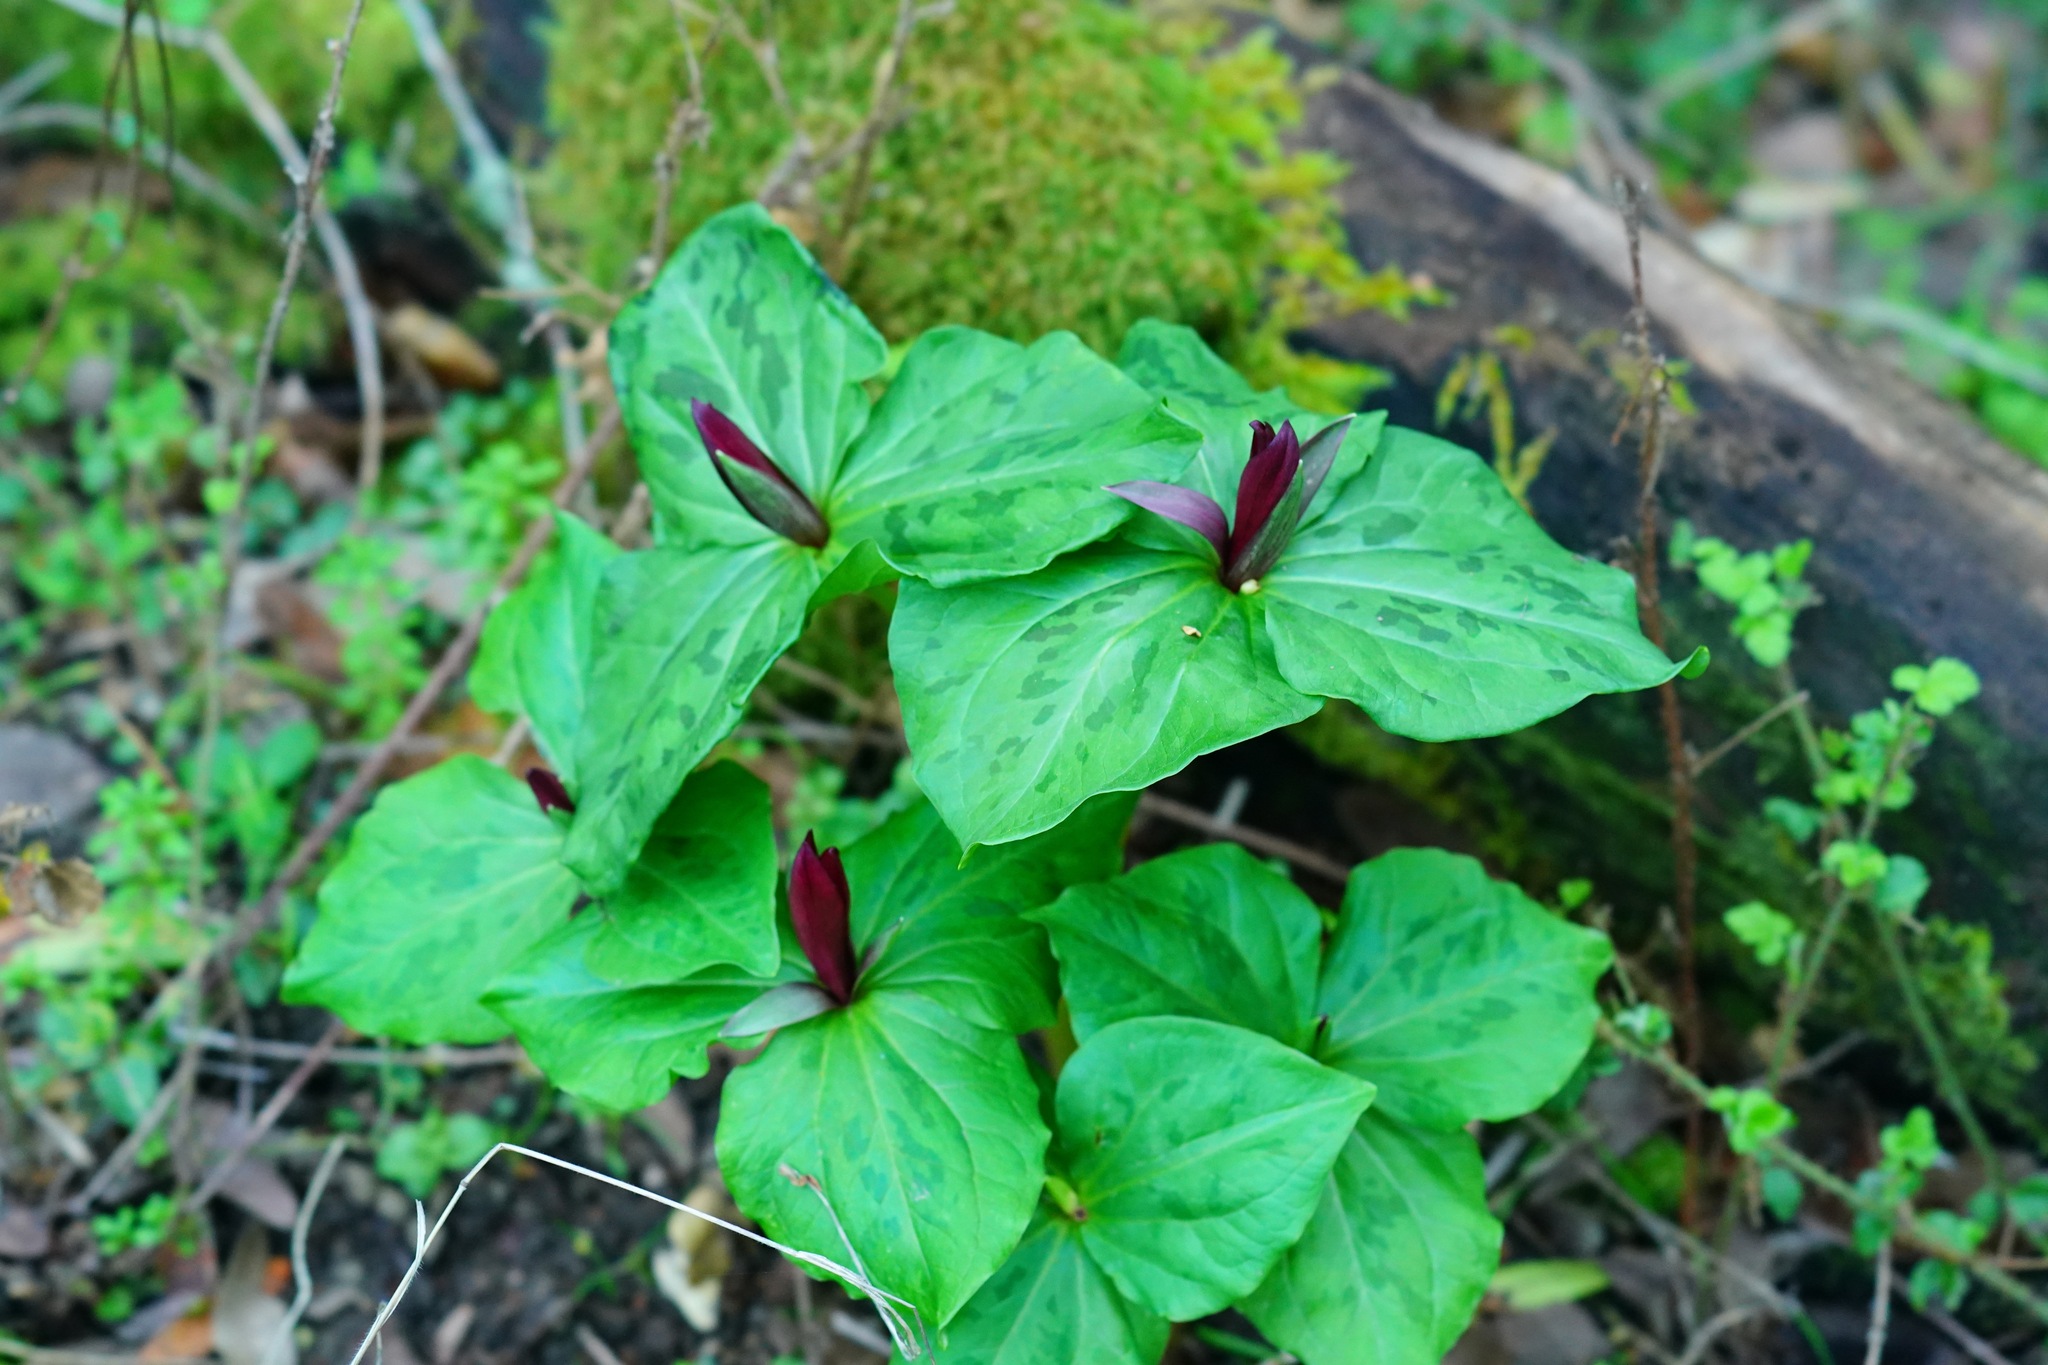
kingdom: Plantae
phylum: Tracheophyta
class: Liliopsida
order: Liliales
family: Melanthiaceae
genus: Trillium
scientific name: Trillium chloropetalum
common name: Giant trillium
